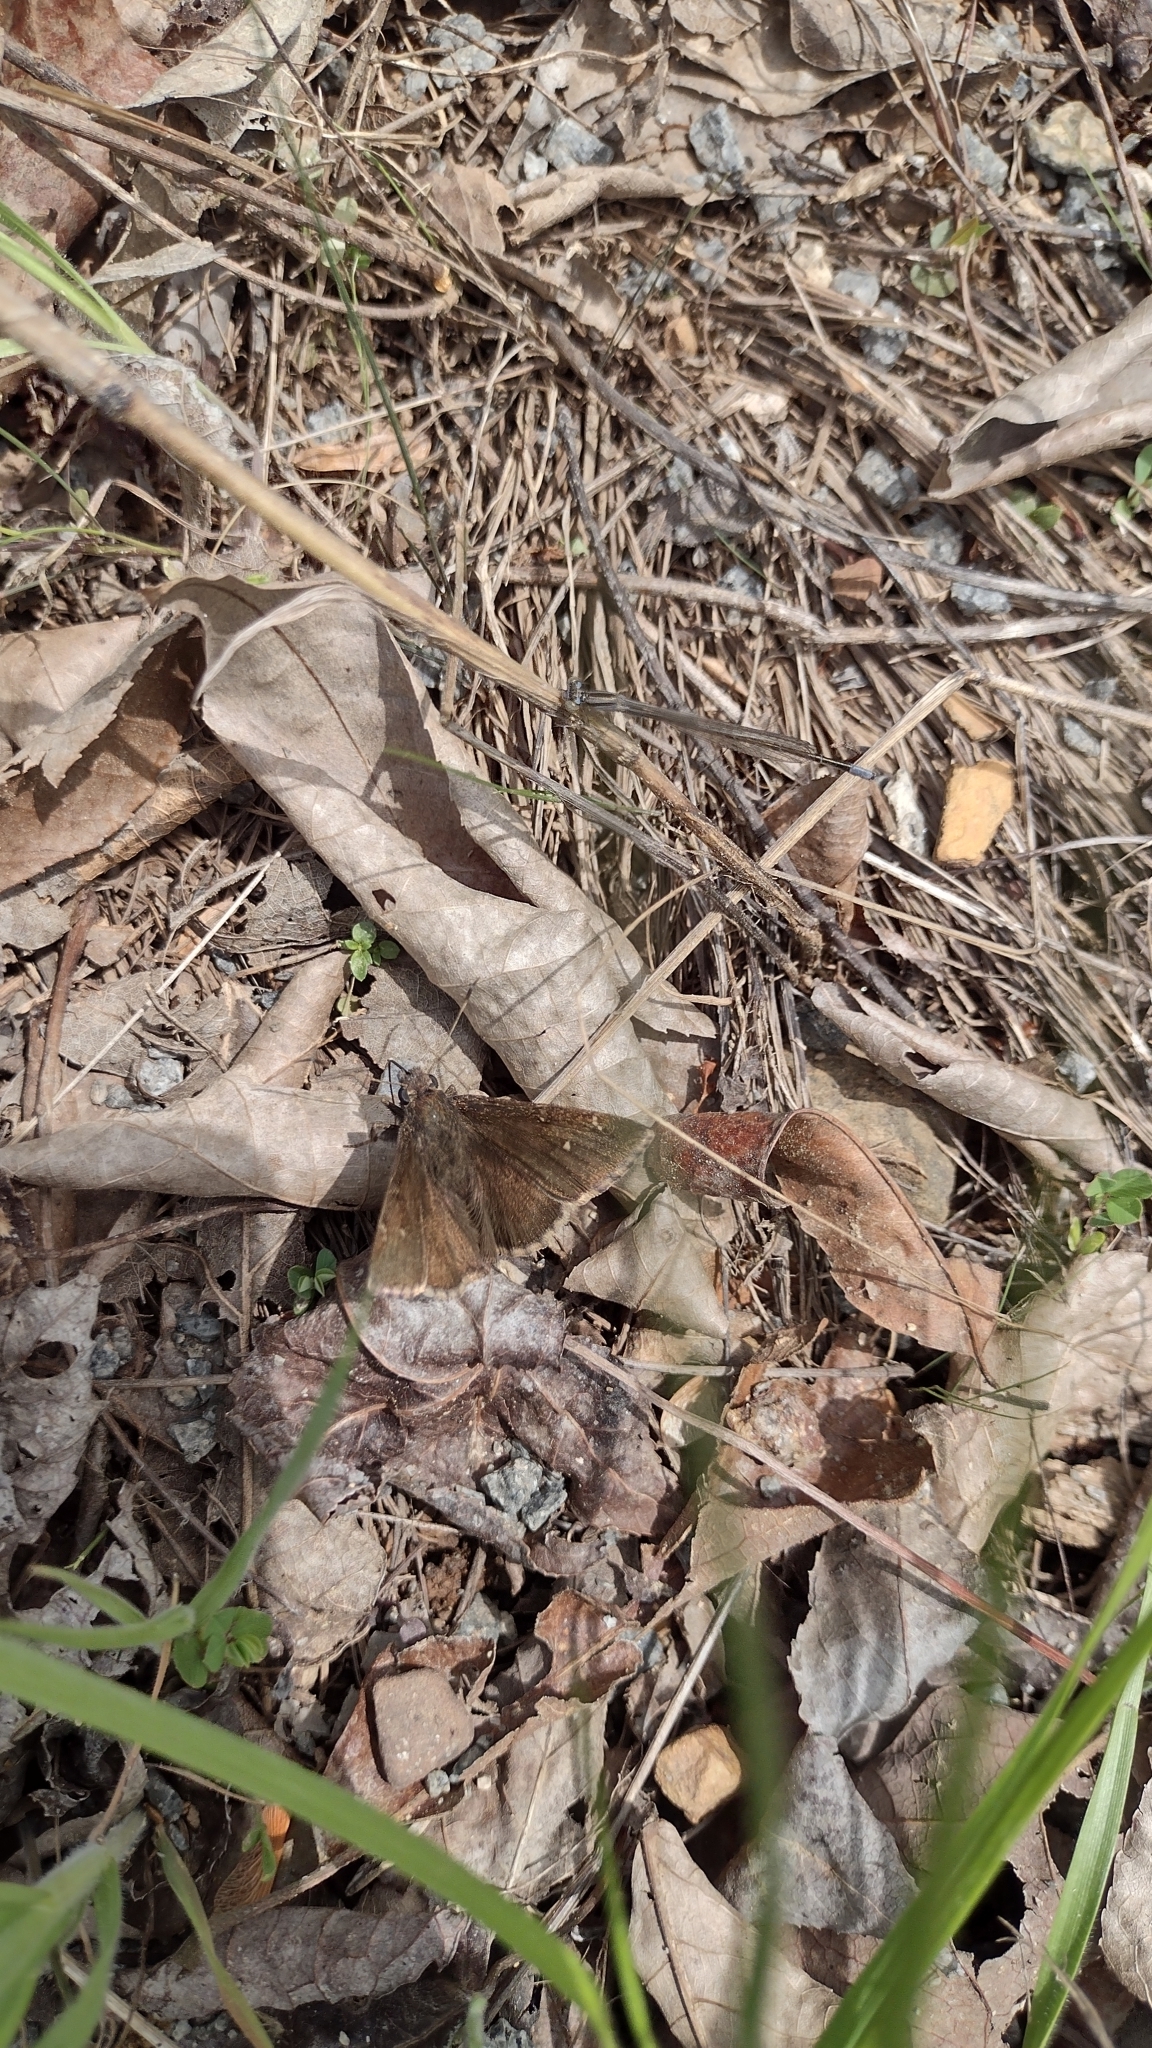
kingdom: Animalia
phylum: Arthropoda
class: Insecta
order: Lepidoptera
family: Hesperiidae
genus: Thorybes
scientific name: Thorybes pylades
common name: Northern cloudywing
